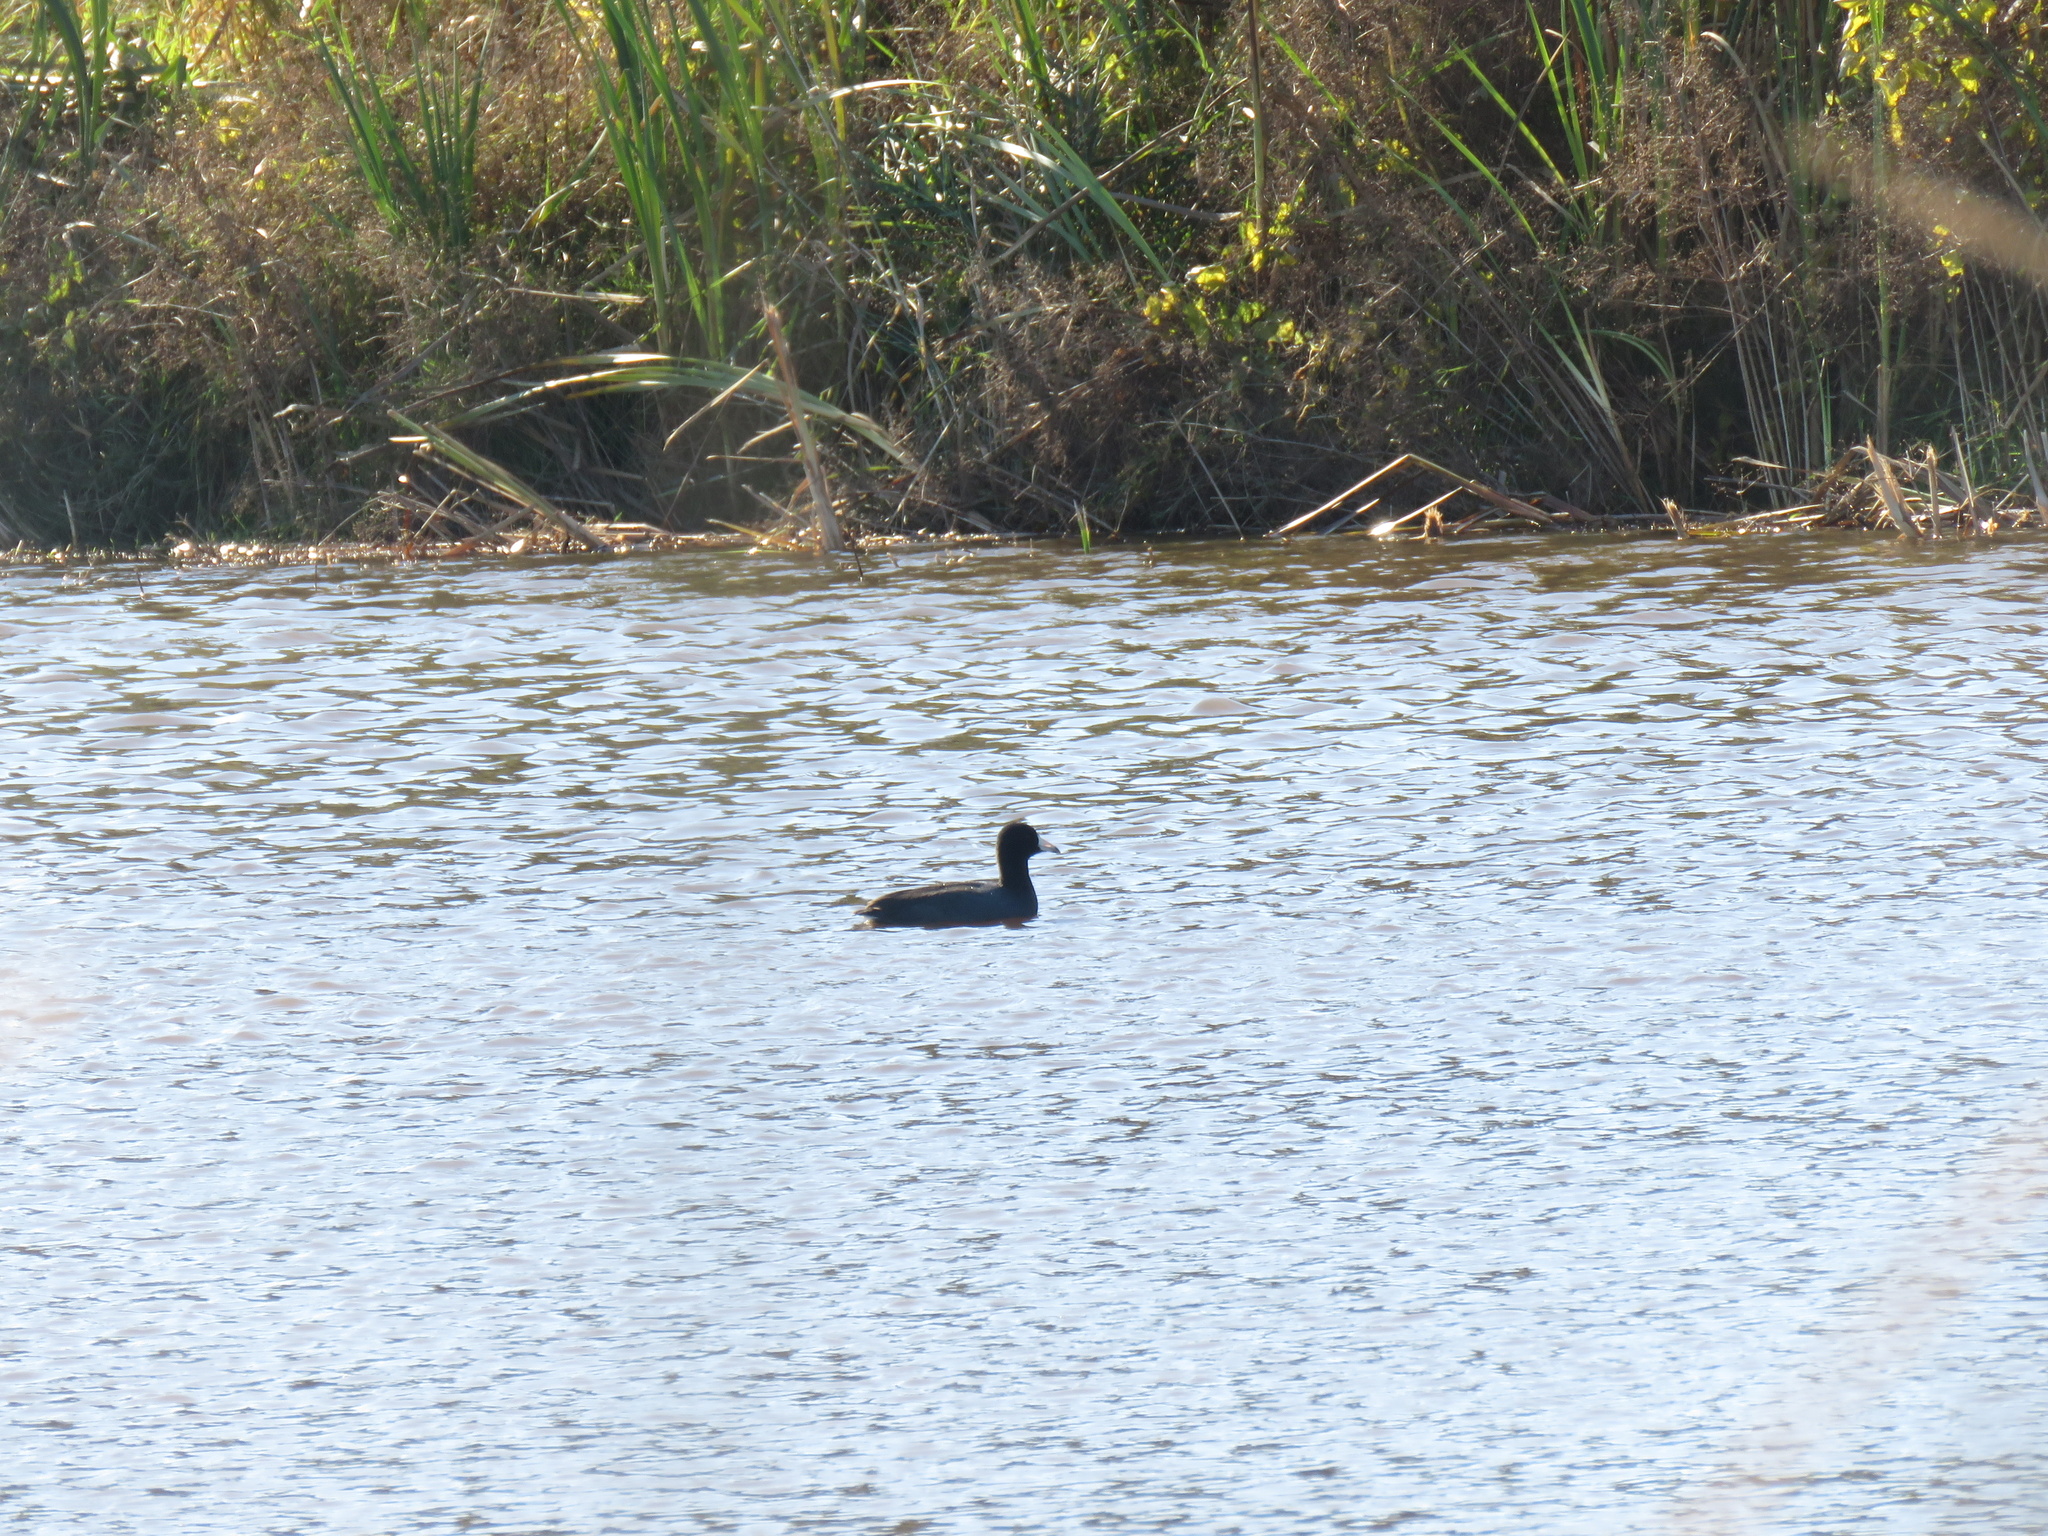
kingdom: Animalia
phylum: Chordata
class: Aves
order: Gruiformes
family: Rallidae
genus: Fulica
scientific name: Fulica americana
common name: American coot
